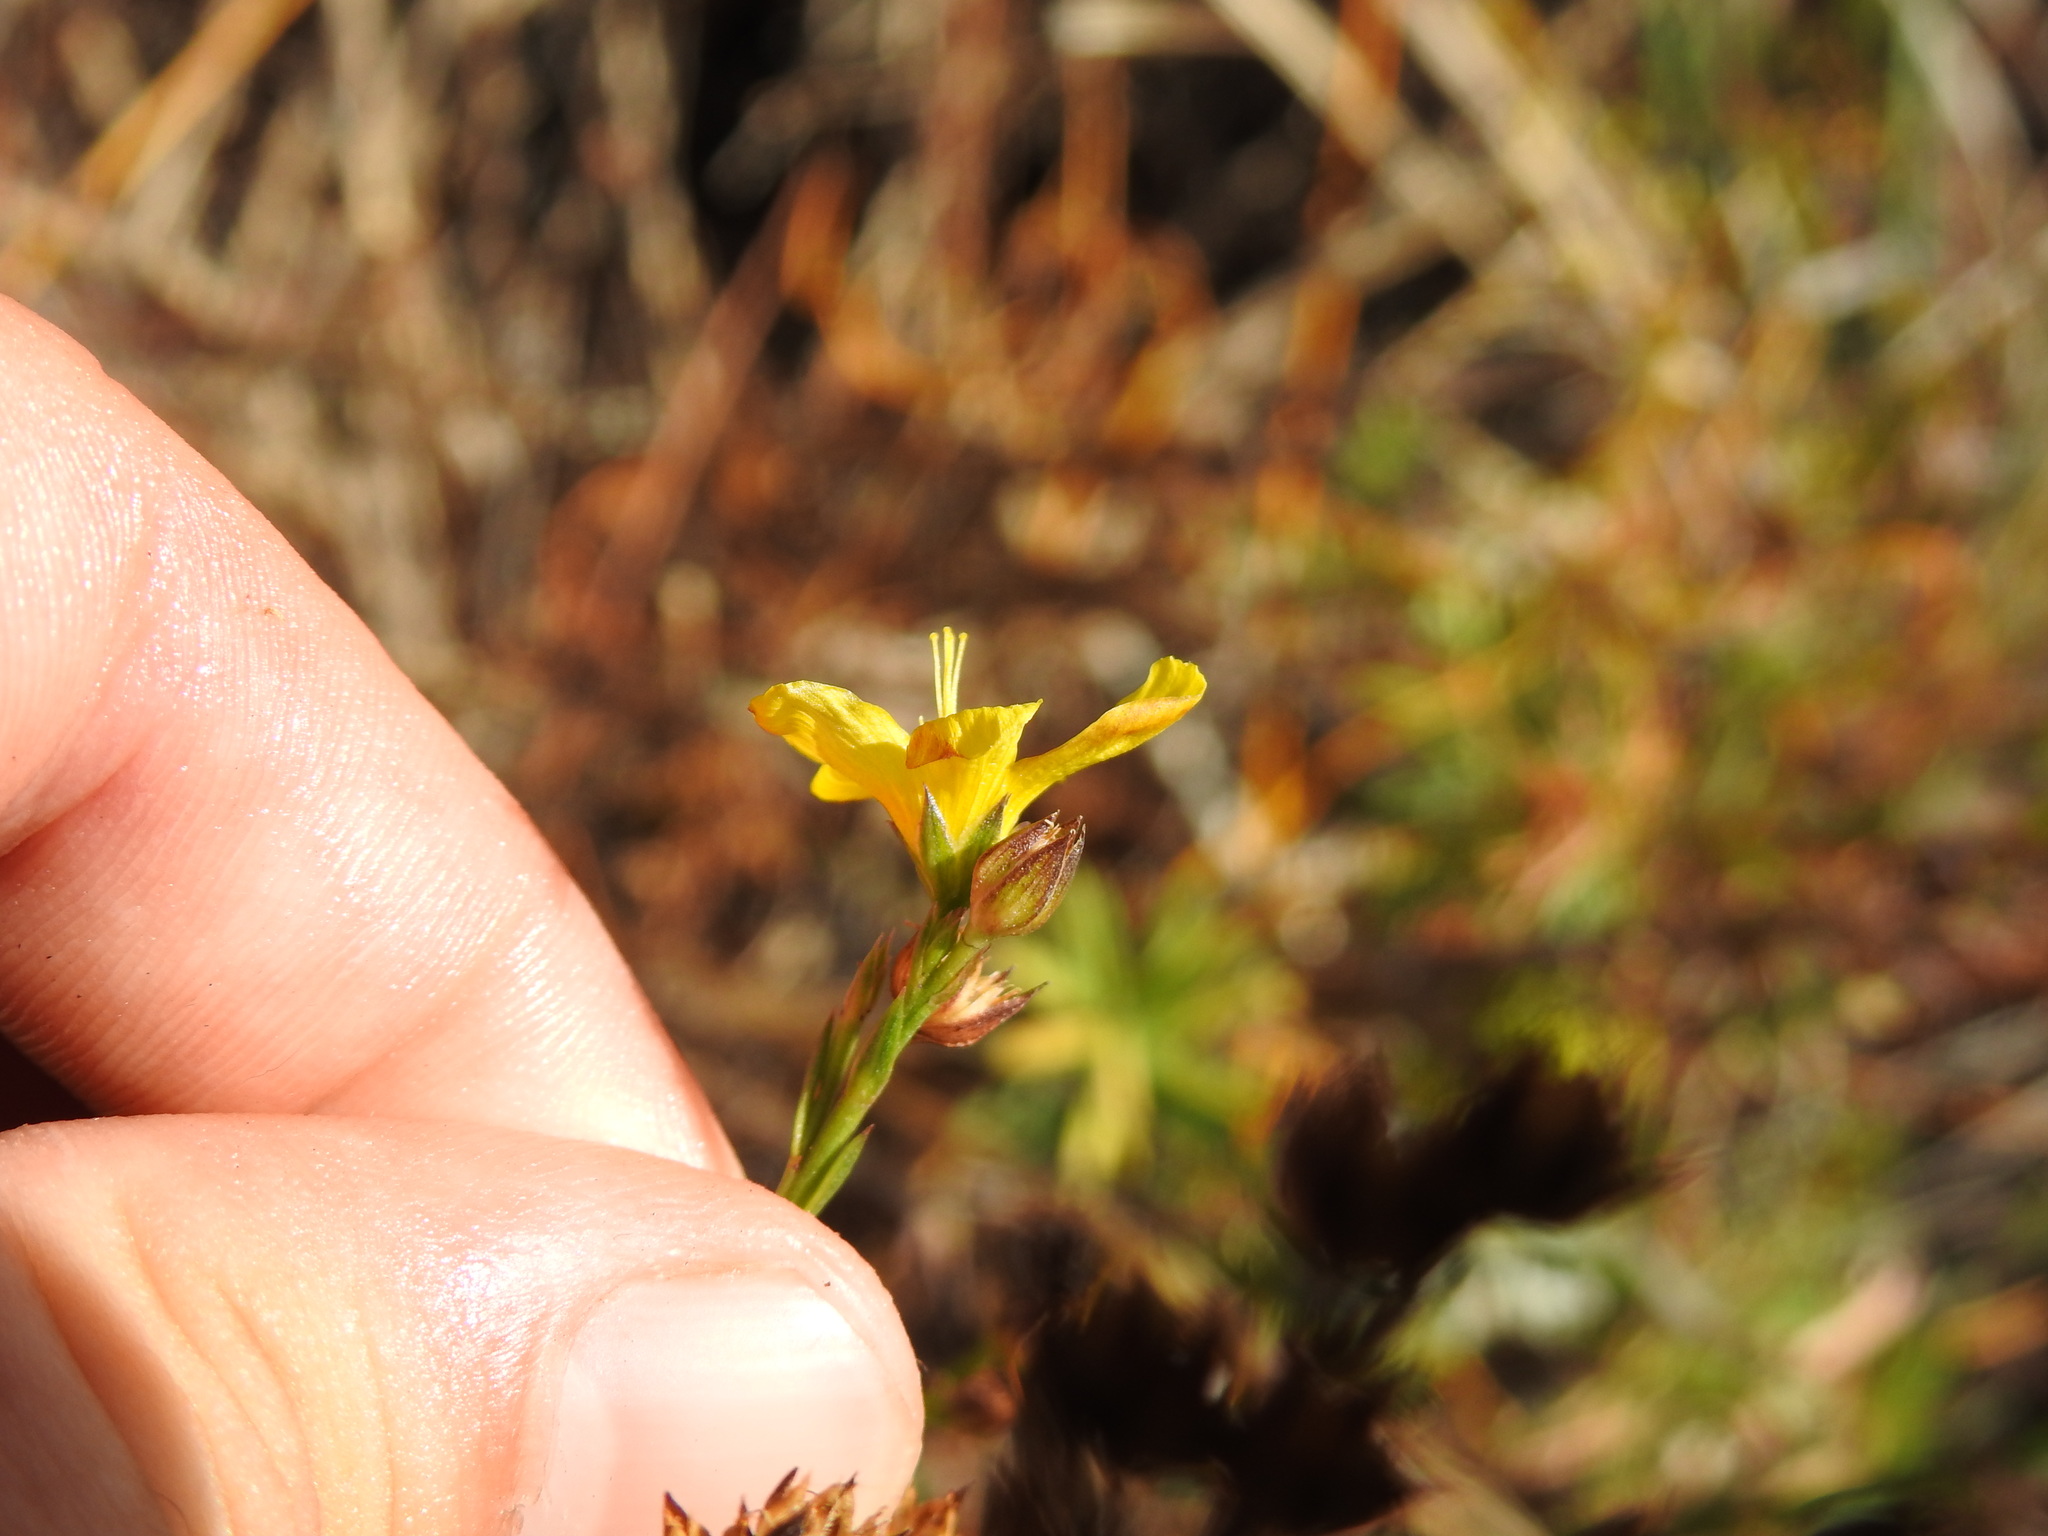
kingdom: Plantae
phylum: Tracheophyta
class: Magnoliopsida
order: Malpighiales
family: Linaceae
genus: Linum
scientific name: Linum africanum
